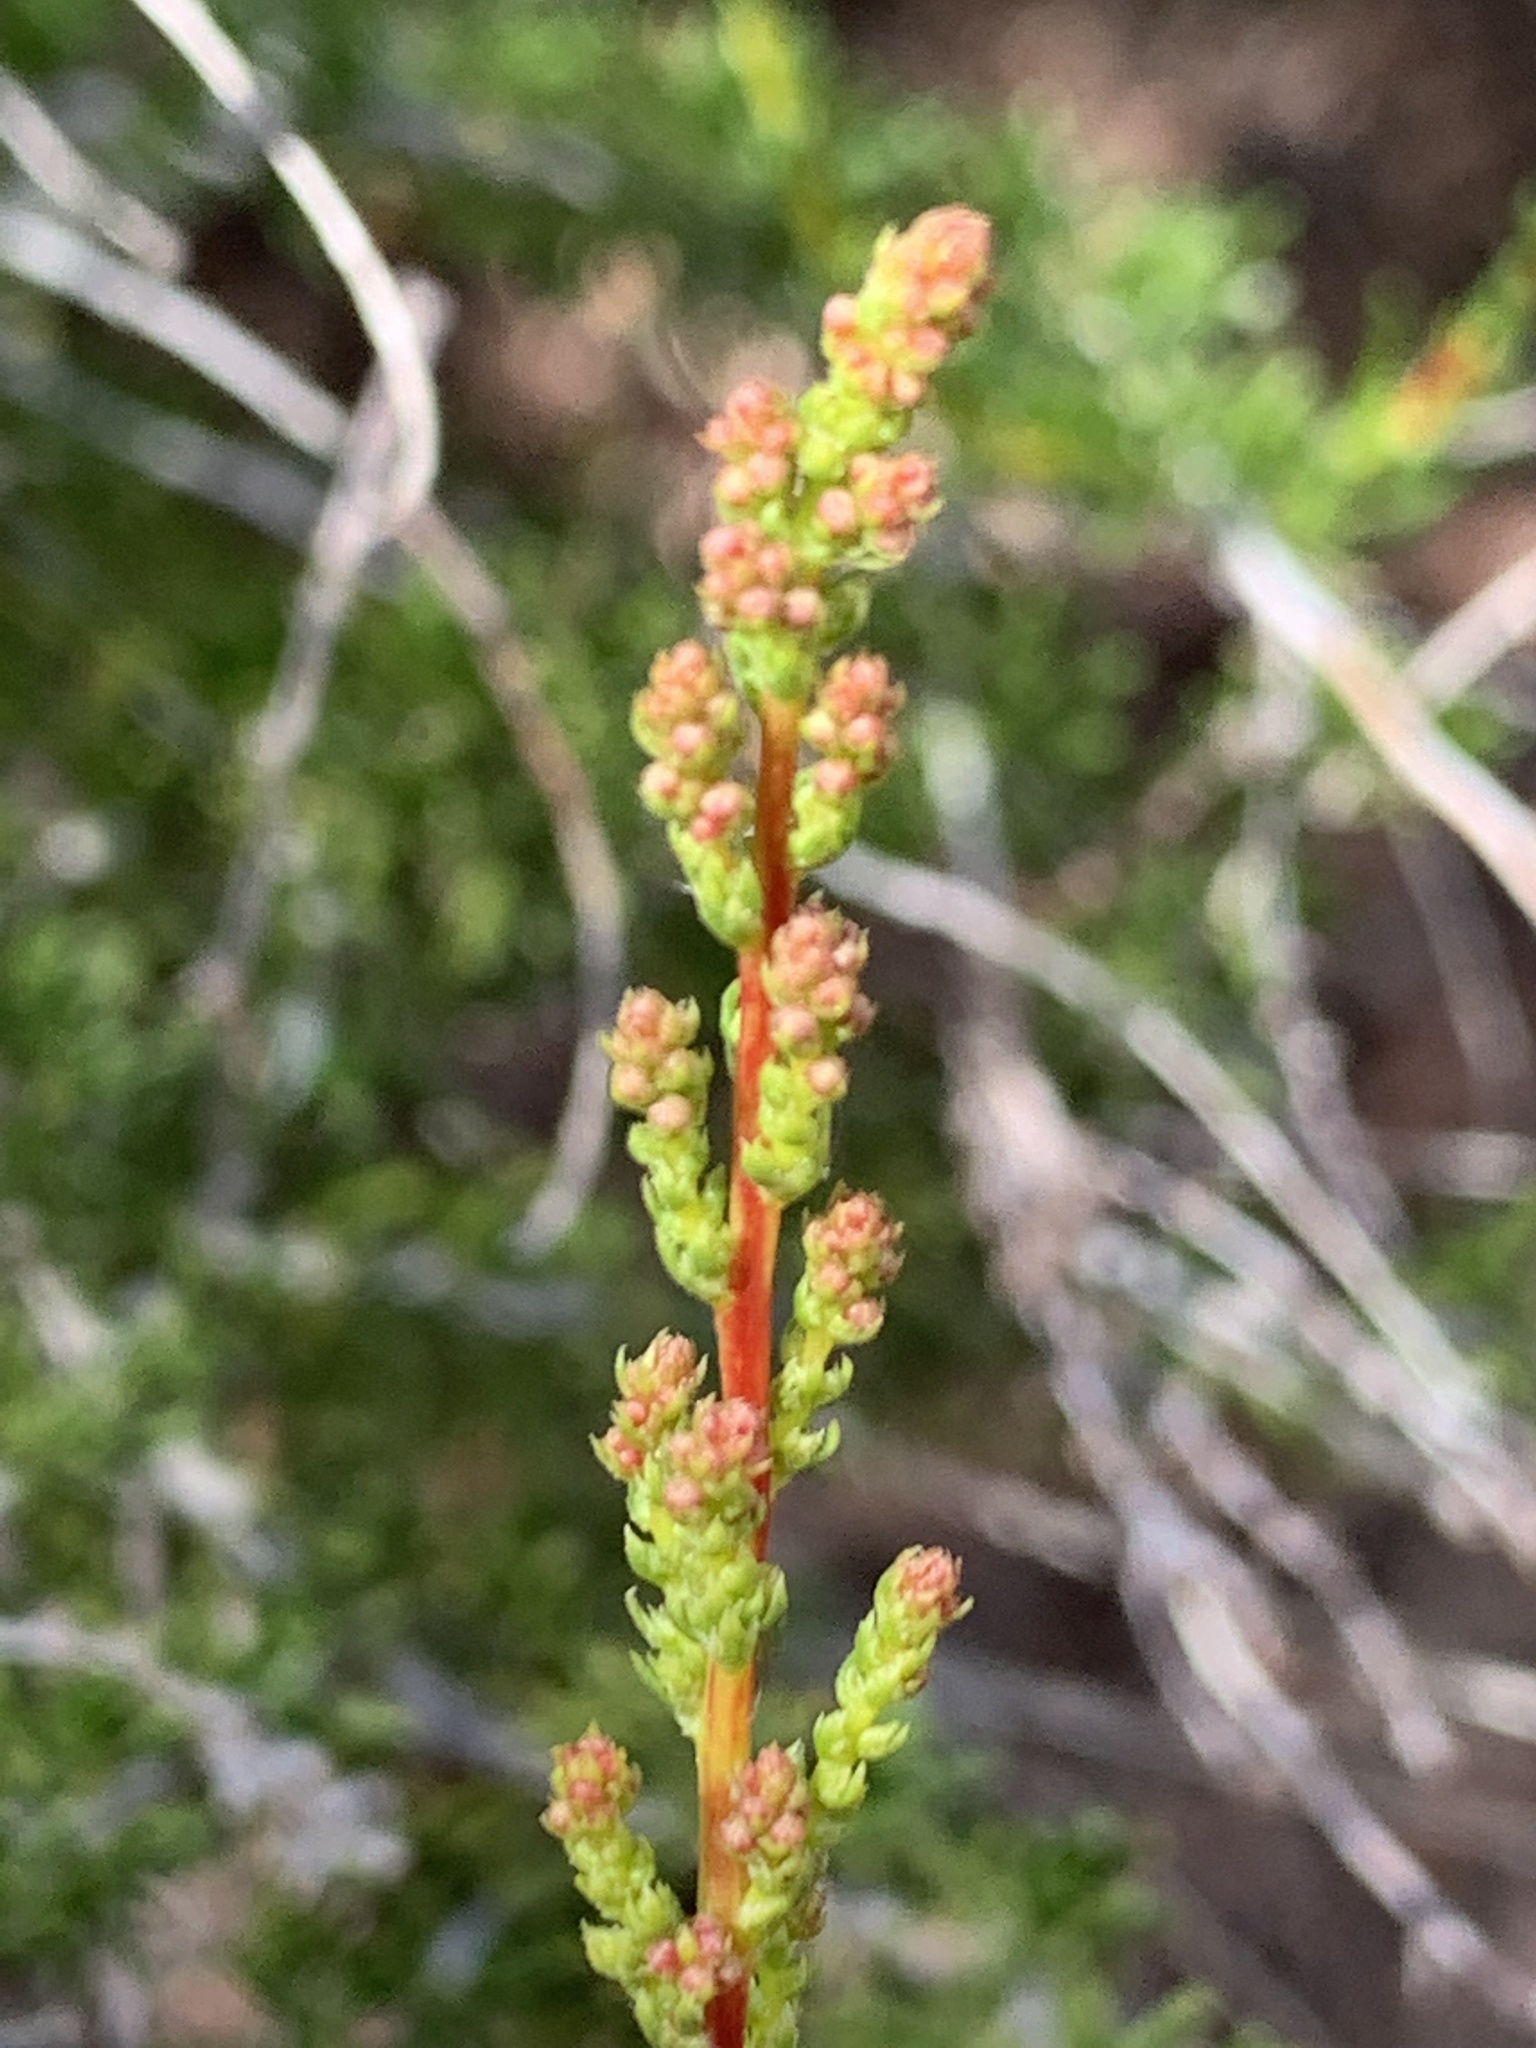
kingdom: Plantae
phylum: Tracheophyta
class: Magnoliopsida
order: Rosales
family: Rosaceae
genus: Adenostoma
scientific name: Adenostoma fasciculatum
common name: Chamise
